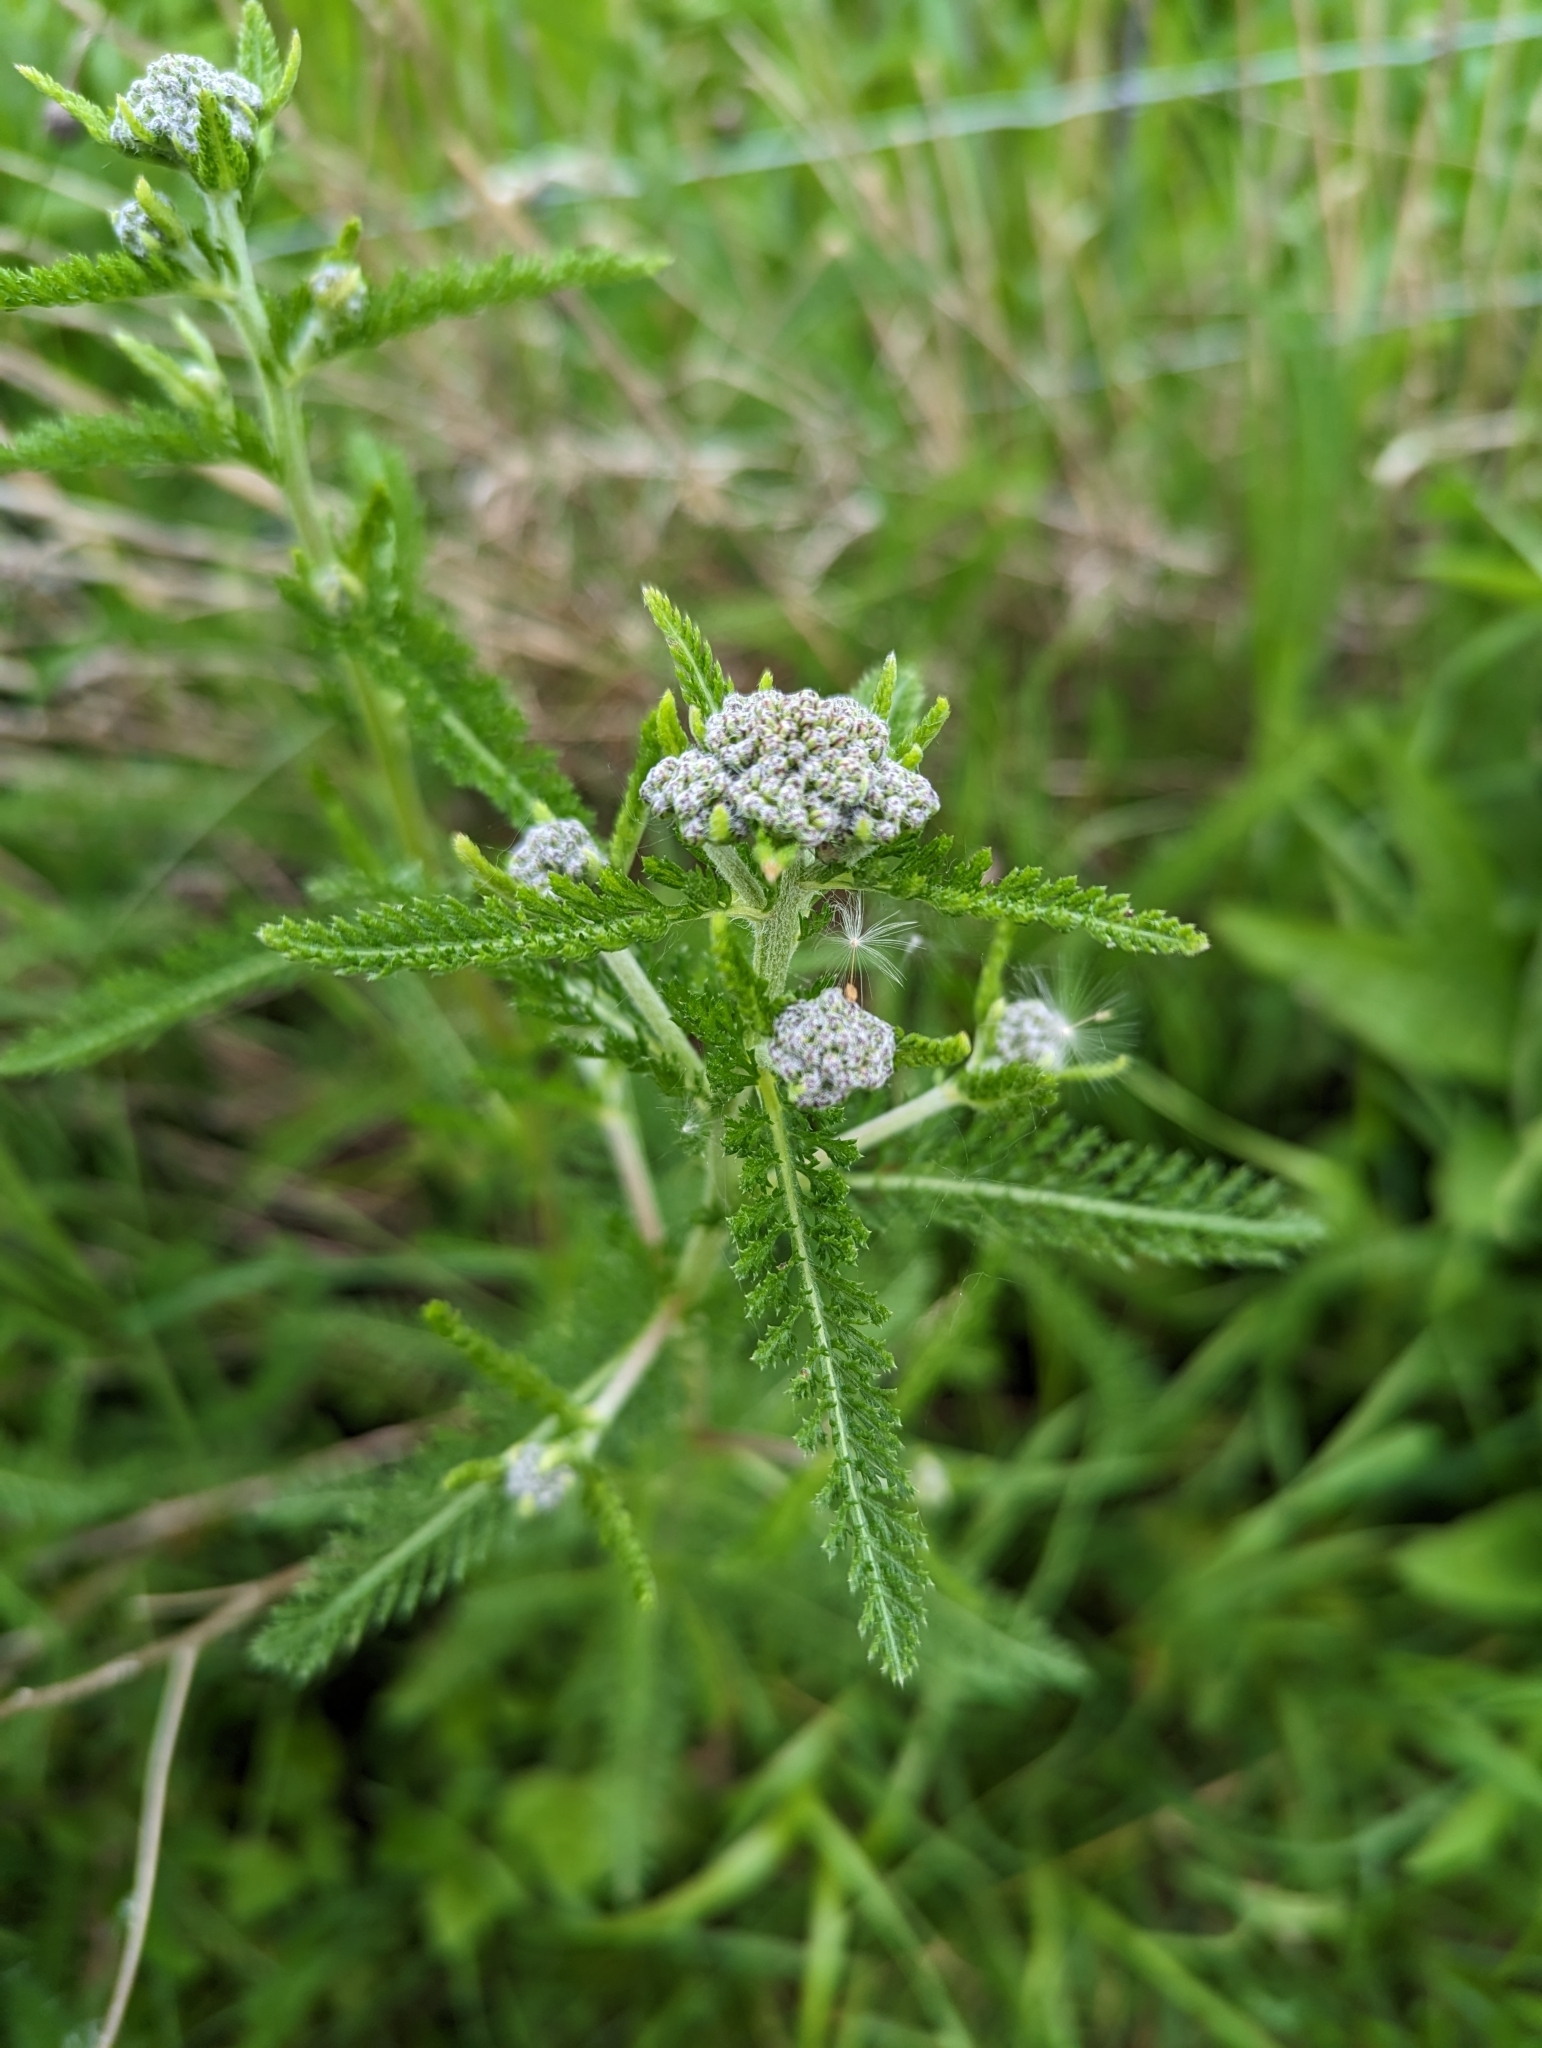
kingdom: Plantae
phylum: Tracheophyta
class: Magnoliopsida
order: Asterales
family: Asteraceae
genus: Achillea
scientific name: Achillea millefolium
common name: Yarrow
